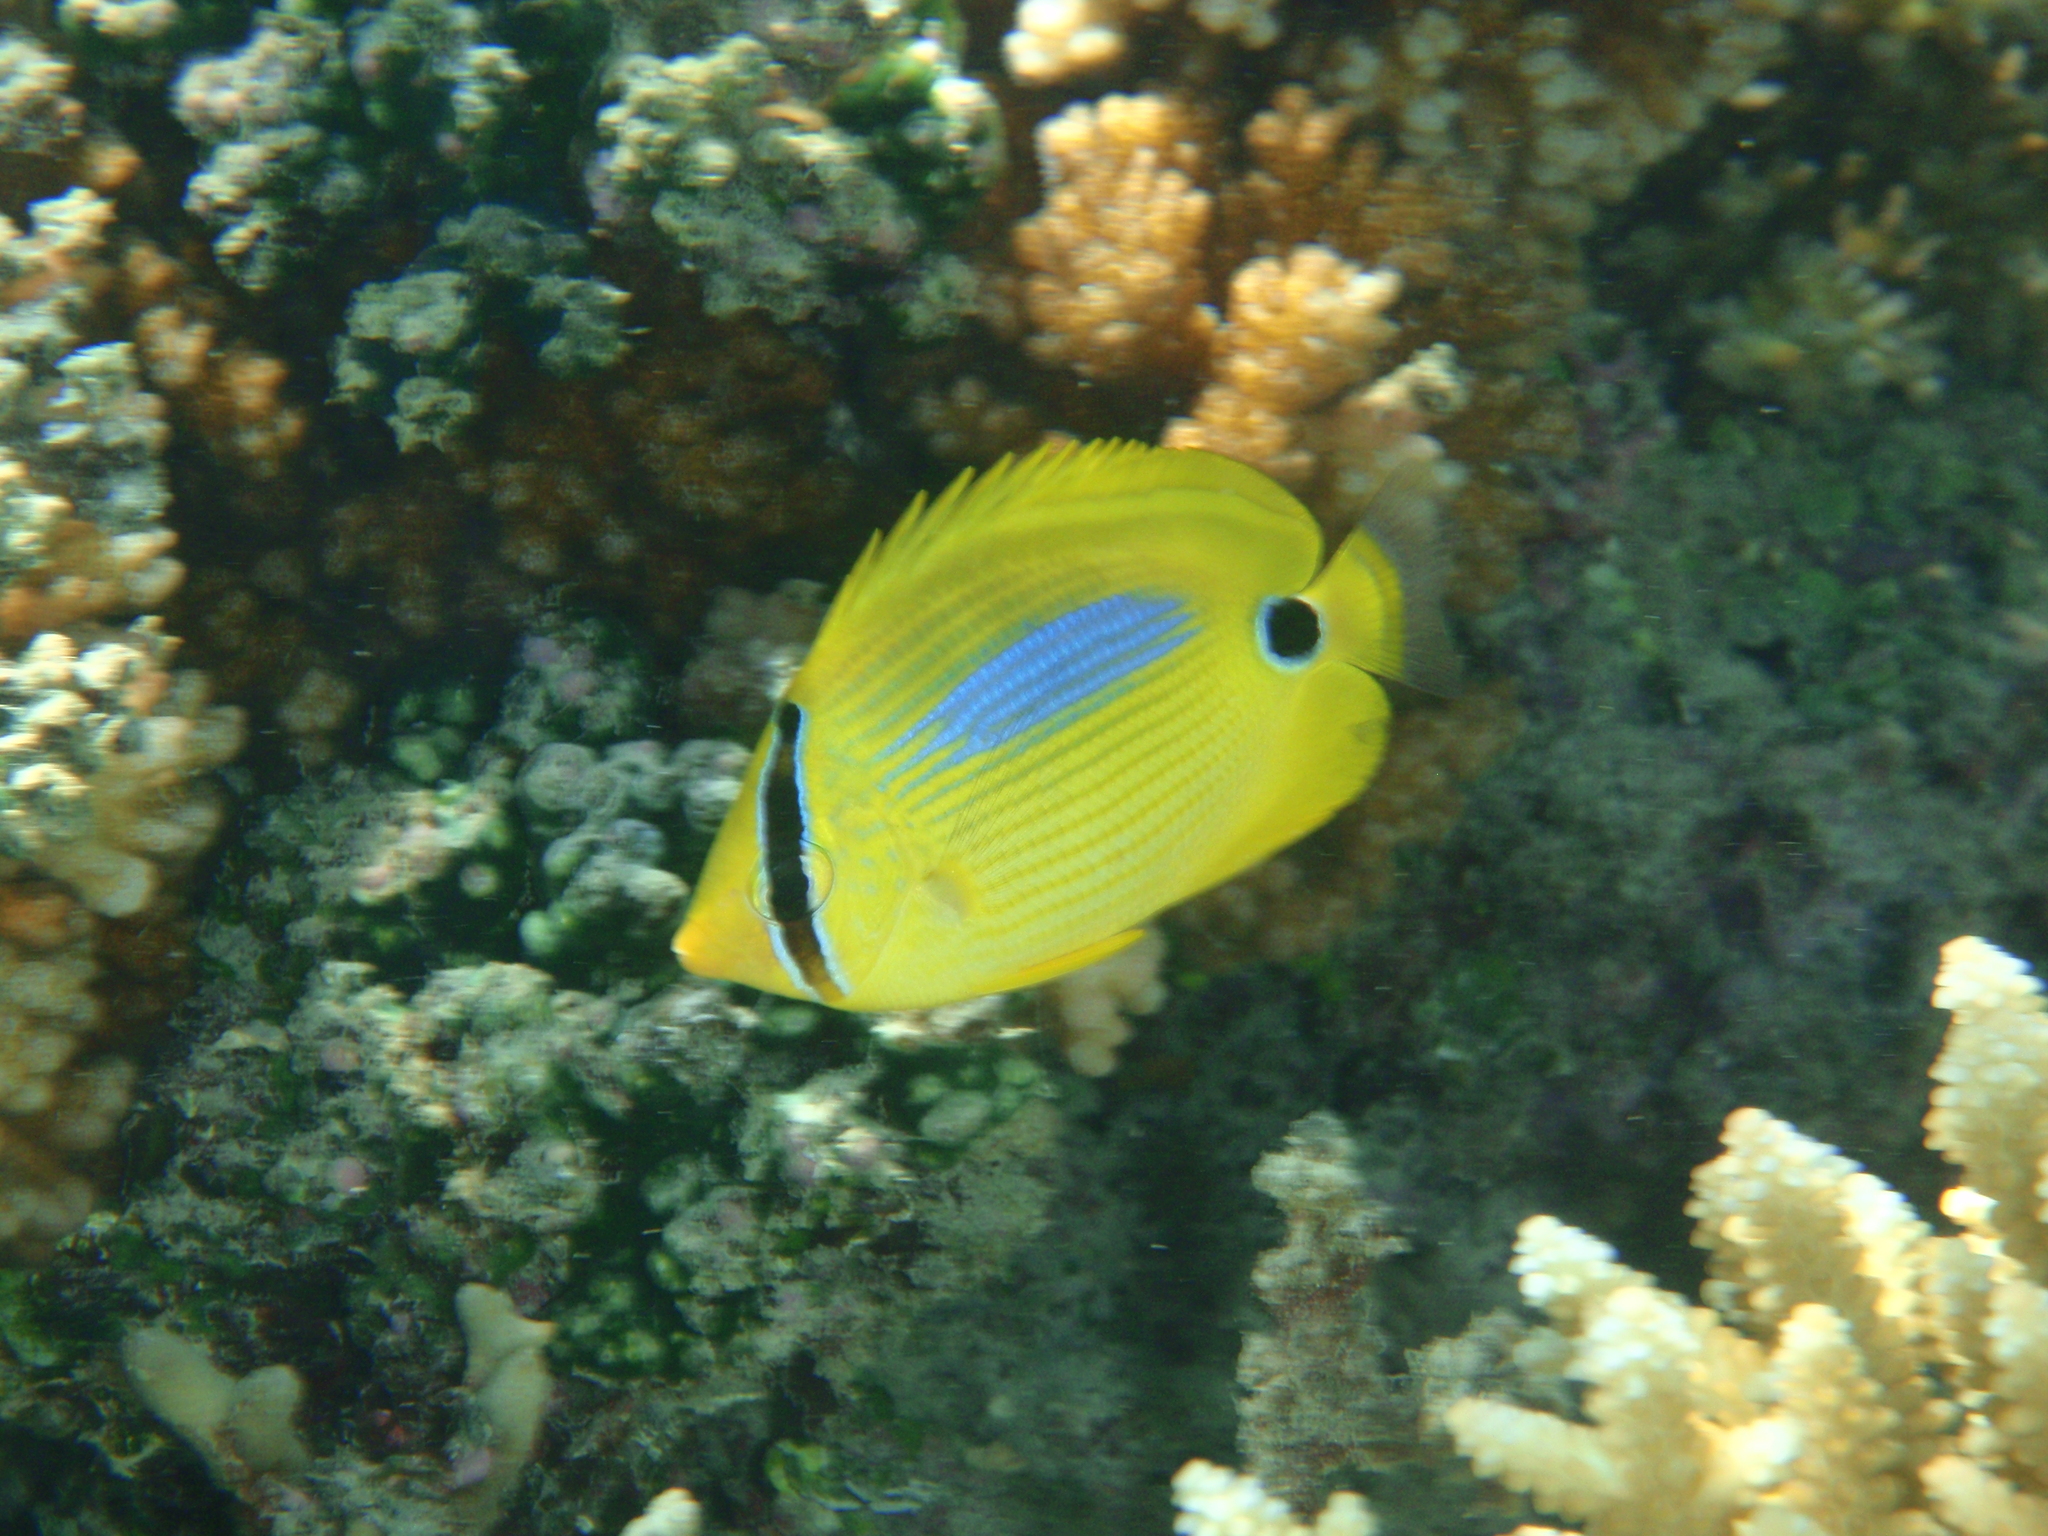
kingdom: Animalia
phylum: Chordata
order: Perciformes
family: Chaetodontidae
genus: Chaetodon
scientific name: Chaetodon plebeius
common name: Bluespot butterflyfish
